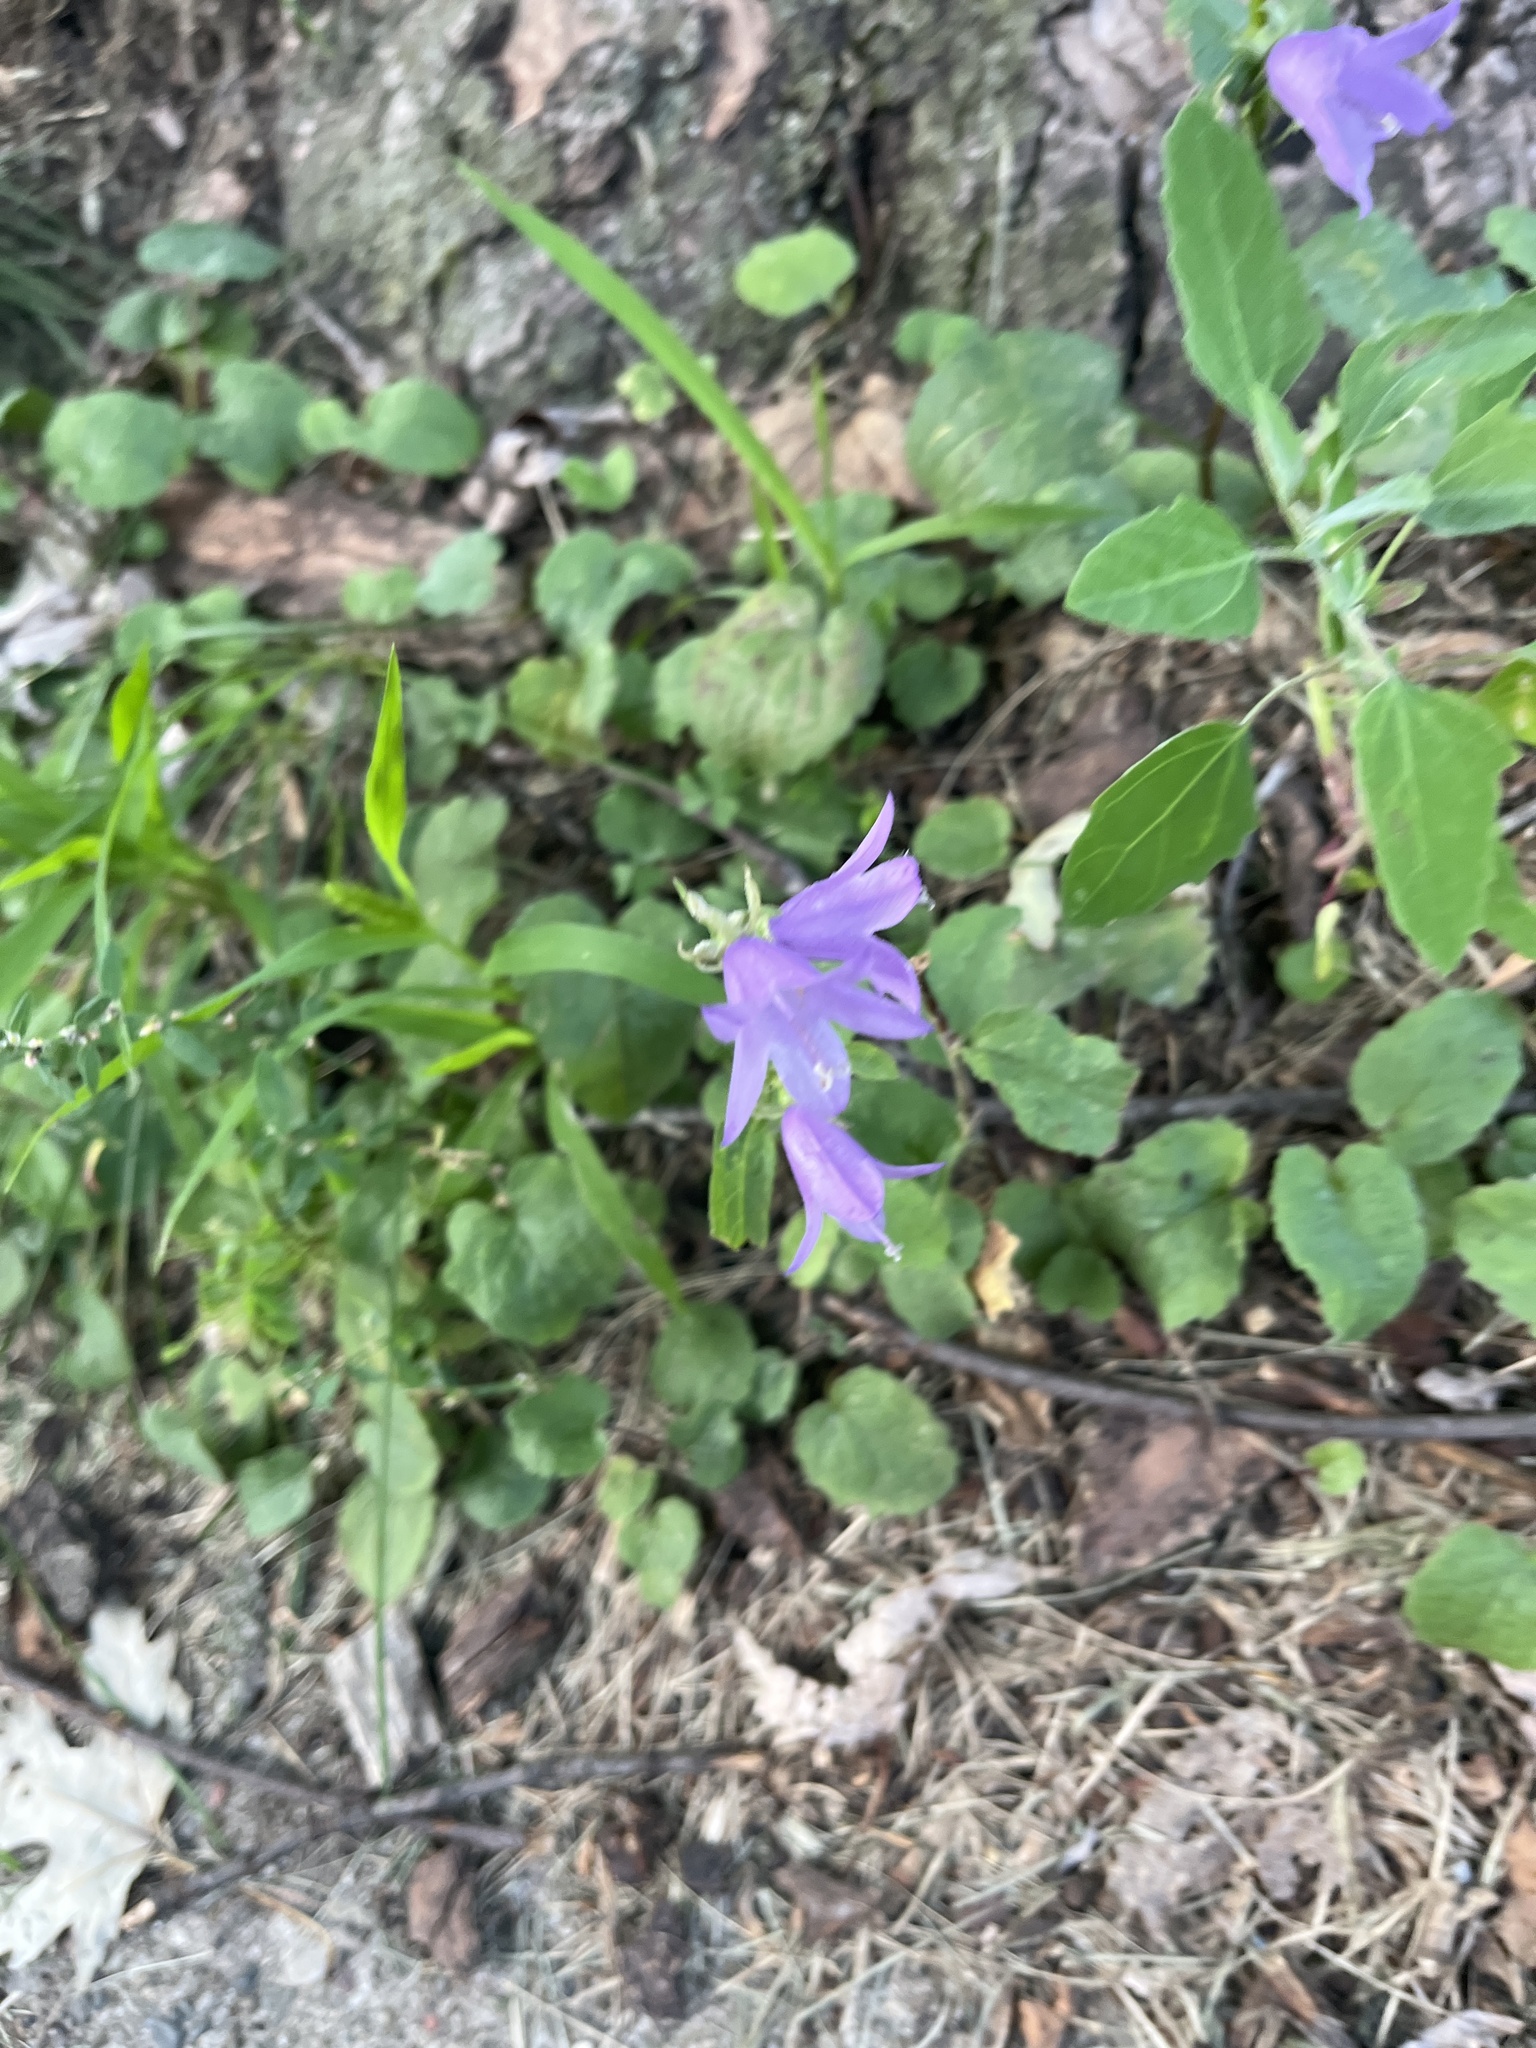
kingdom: Plantae
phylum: Tracheophyta
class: Magnoliopsida
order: Asterales
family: Campanulaceae
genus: Campanula
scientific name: Campanula rapunculoides
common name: Creeping bellflower
